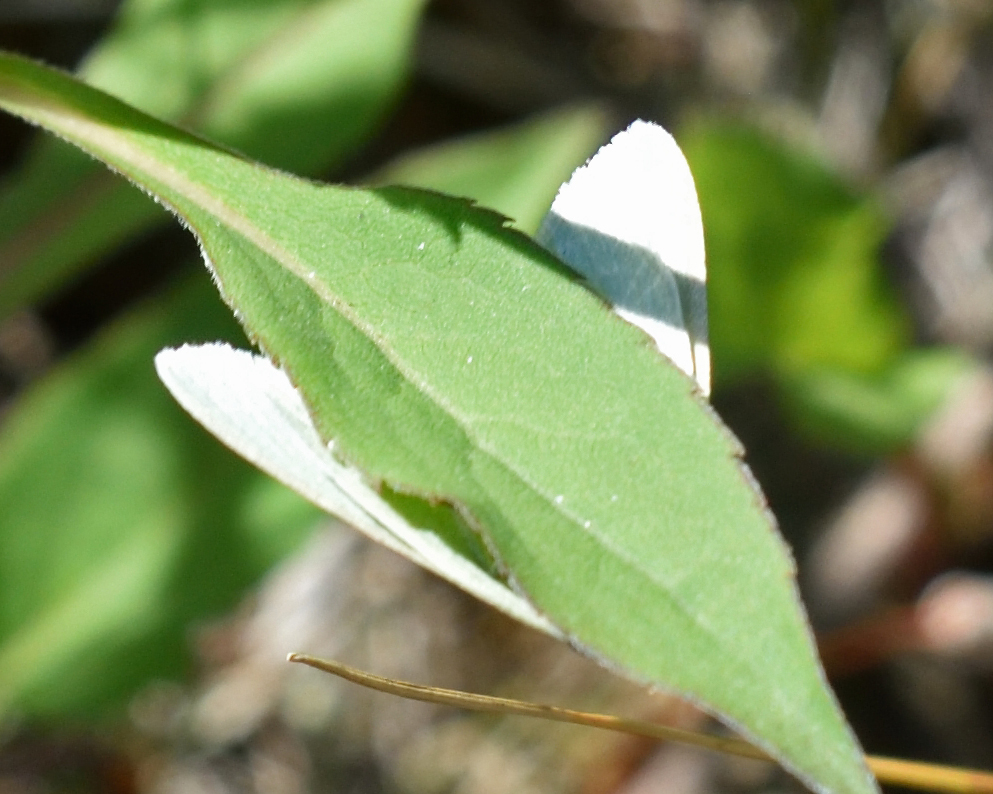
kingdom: Animalia
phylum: Arthropoda
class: Insecta
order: Lepidoptera
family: Geometridae
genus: Pseudoterpna
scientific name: Pseudoterpna pruinata
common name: Grass emerald
